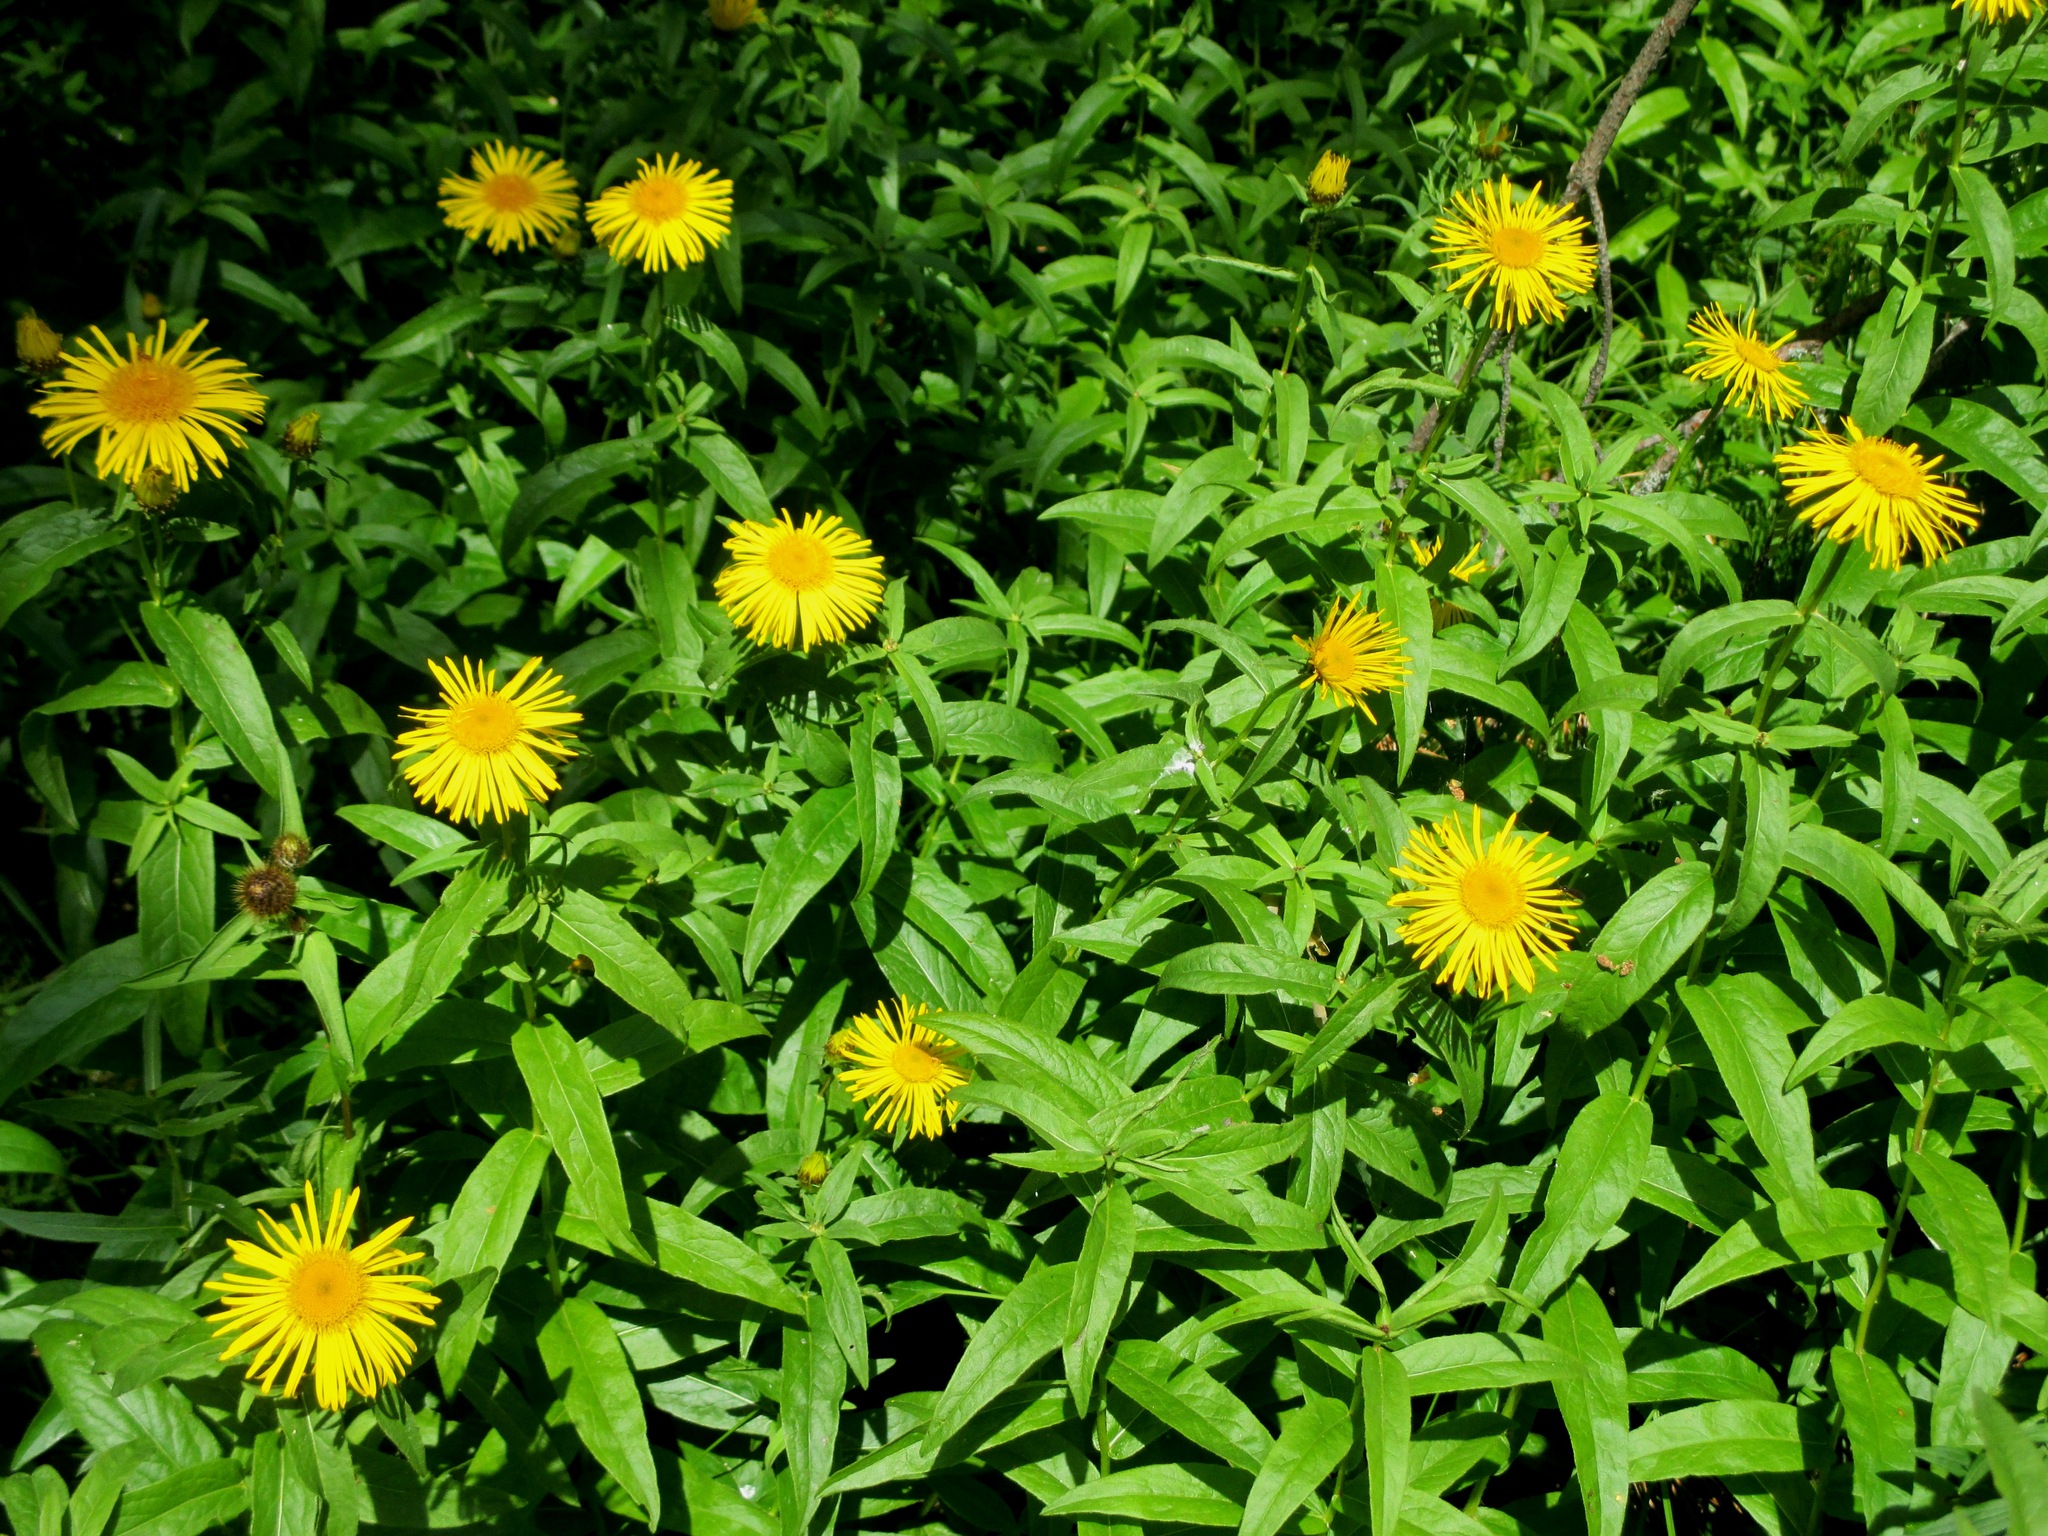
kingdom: Plantae
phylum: Tracheophyta
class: Magnoliopsida
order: Asterales
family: Asteraceae
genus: Pentanema
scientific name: Pentanema salicinum
